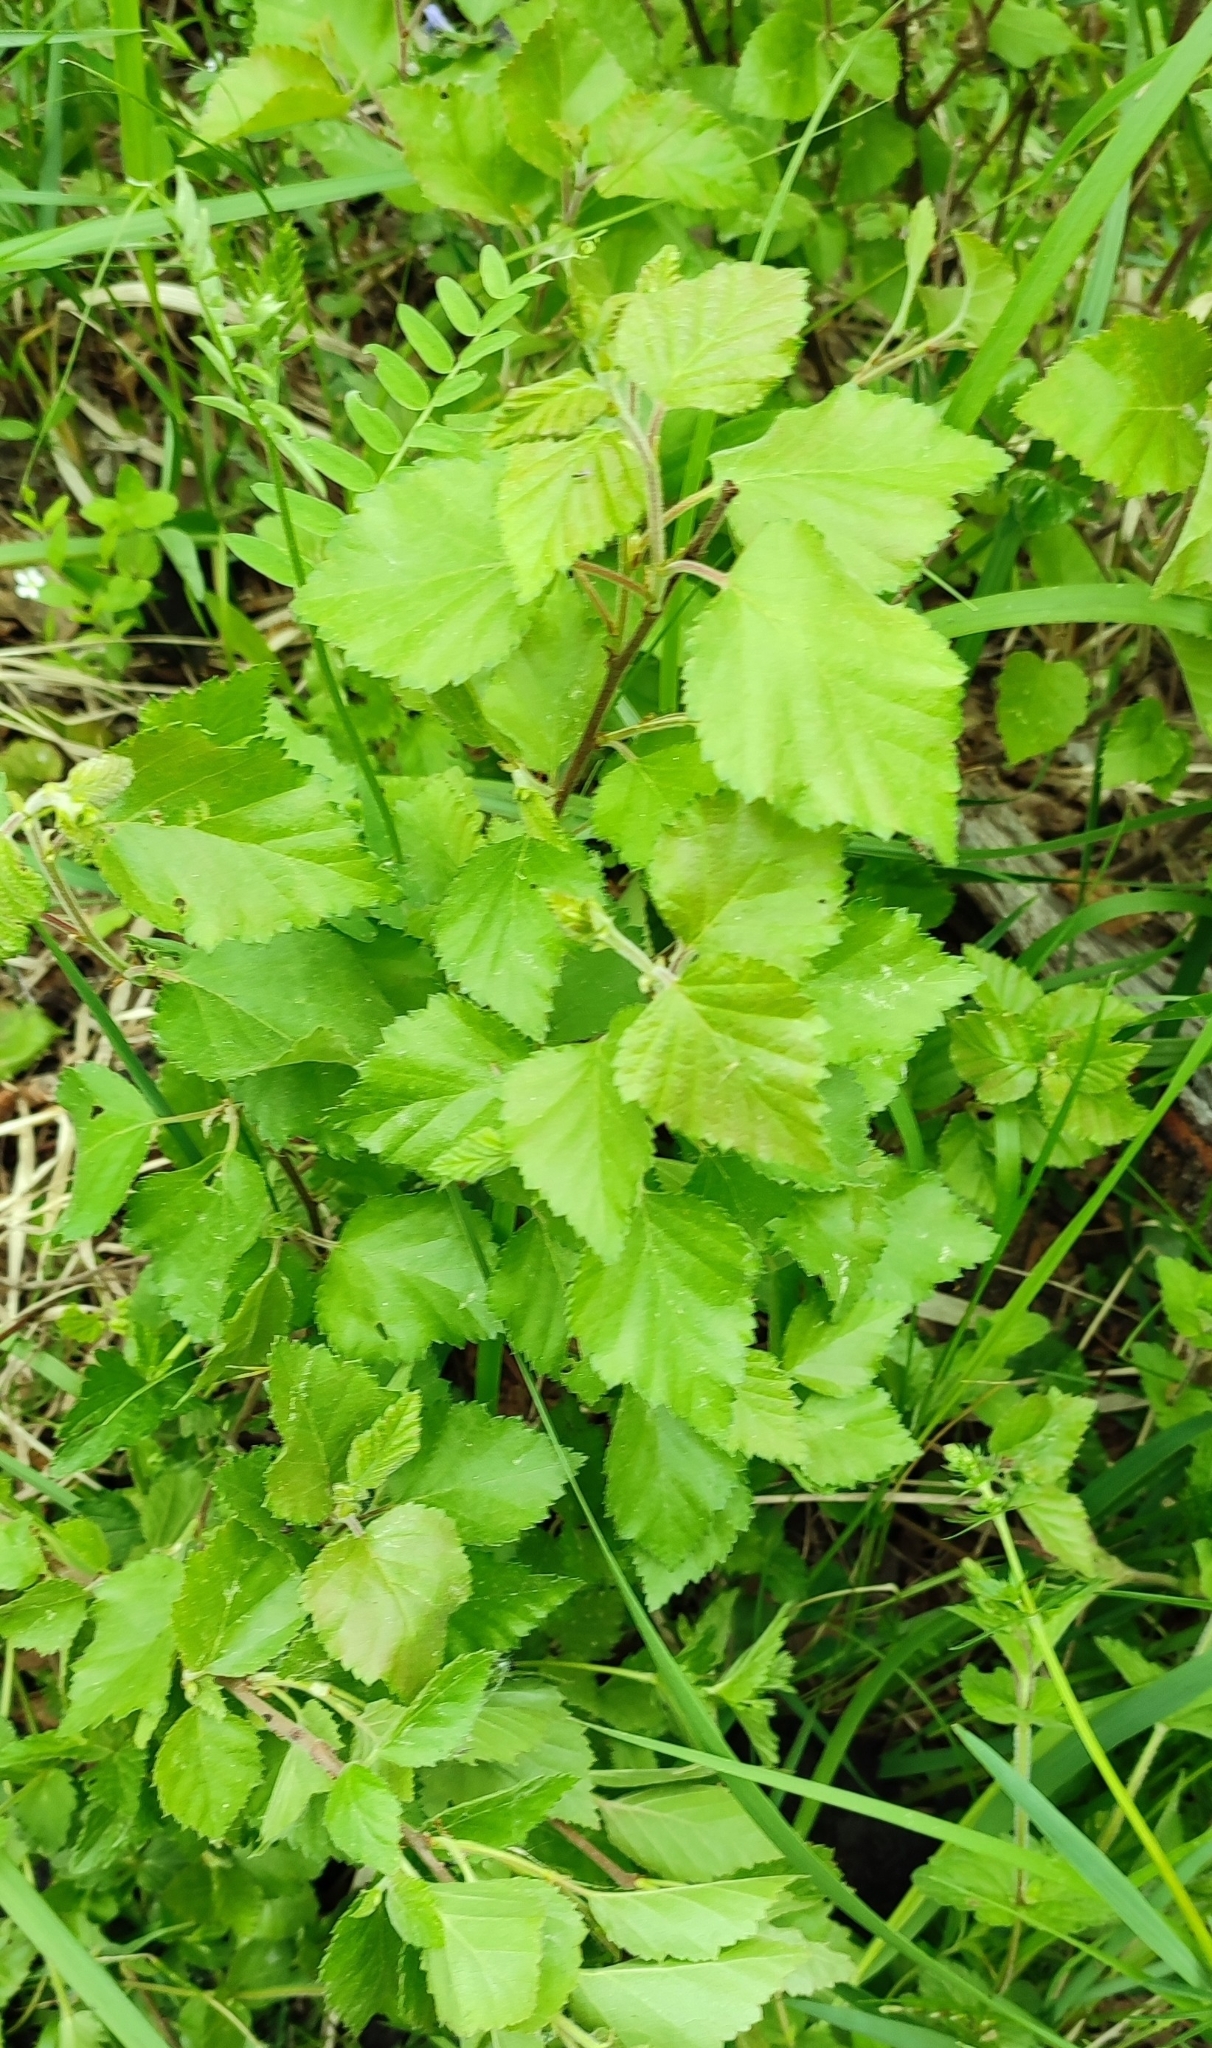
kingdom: Plantae
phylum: Tracheophyta
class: Magnoliopsida
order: Fagales
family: Betulaceae
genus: Betula
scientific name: Betula pubescens
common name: Downy birch
